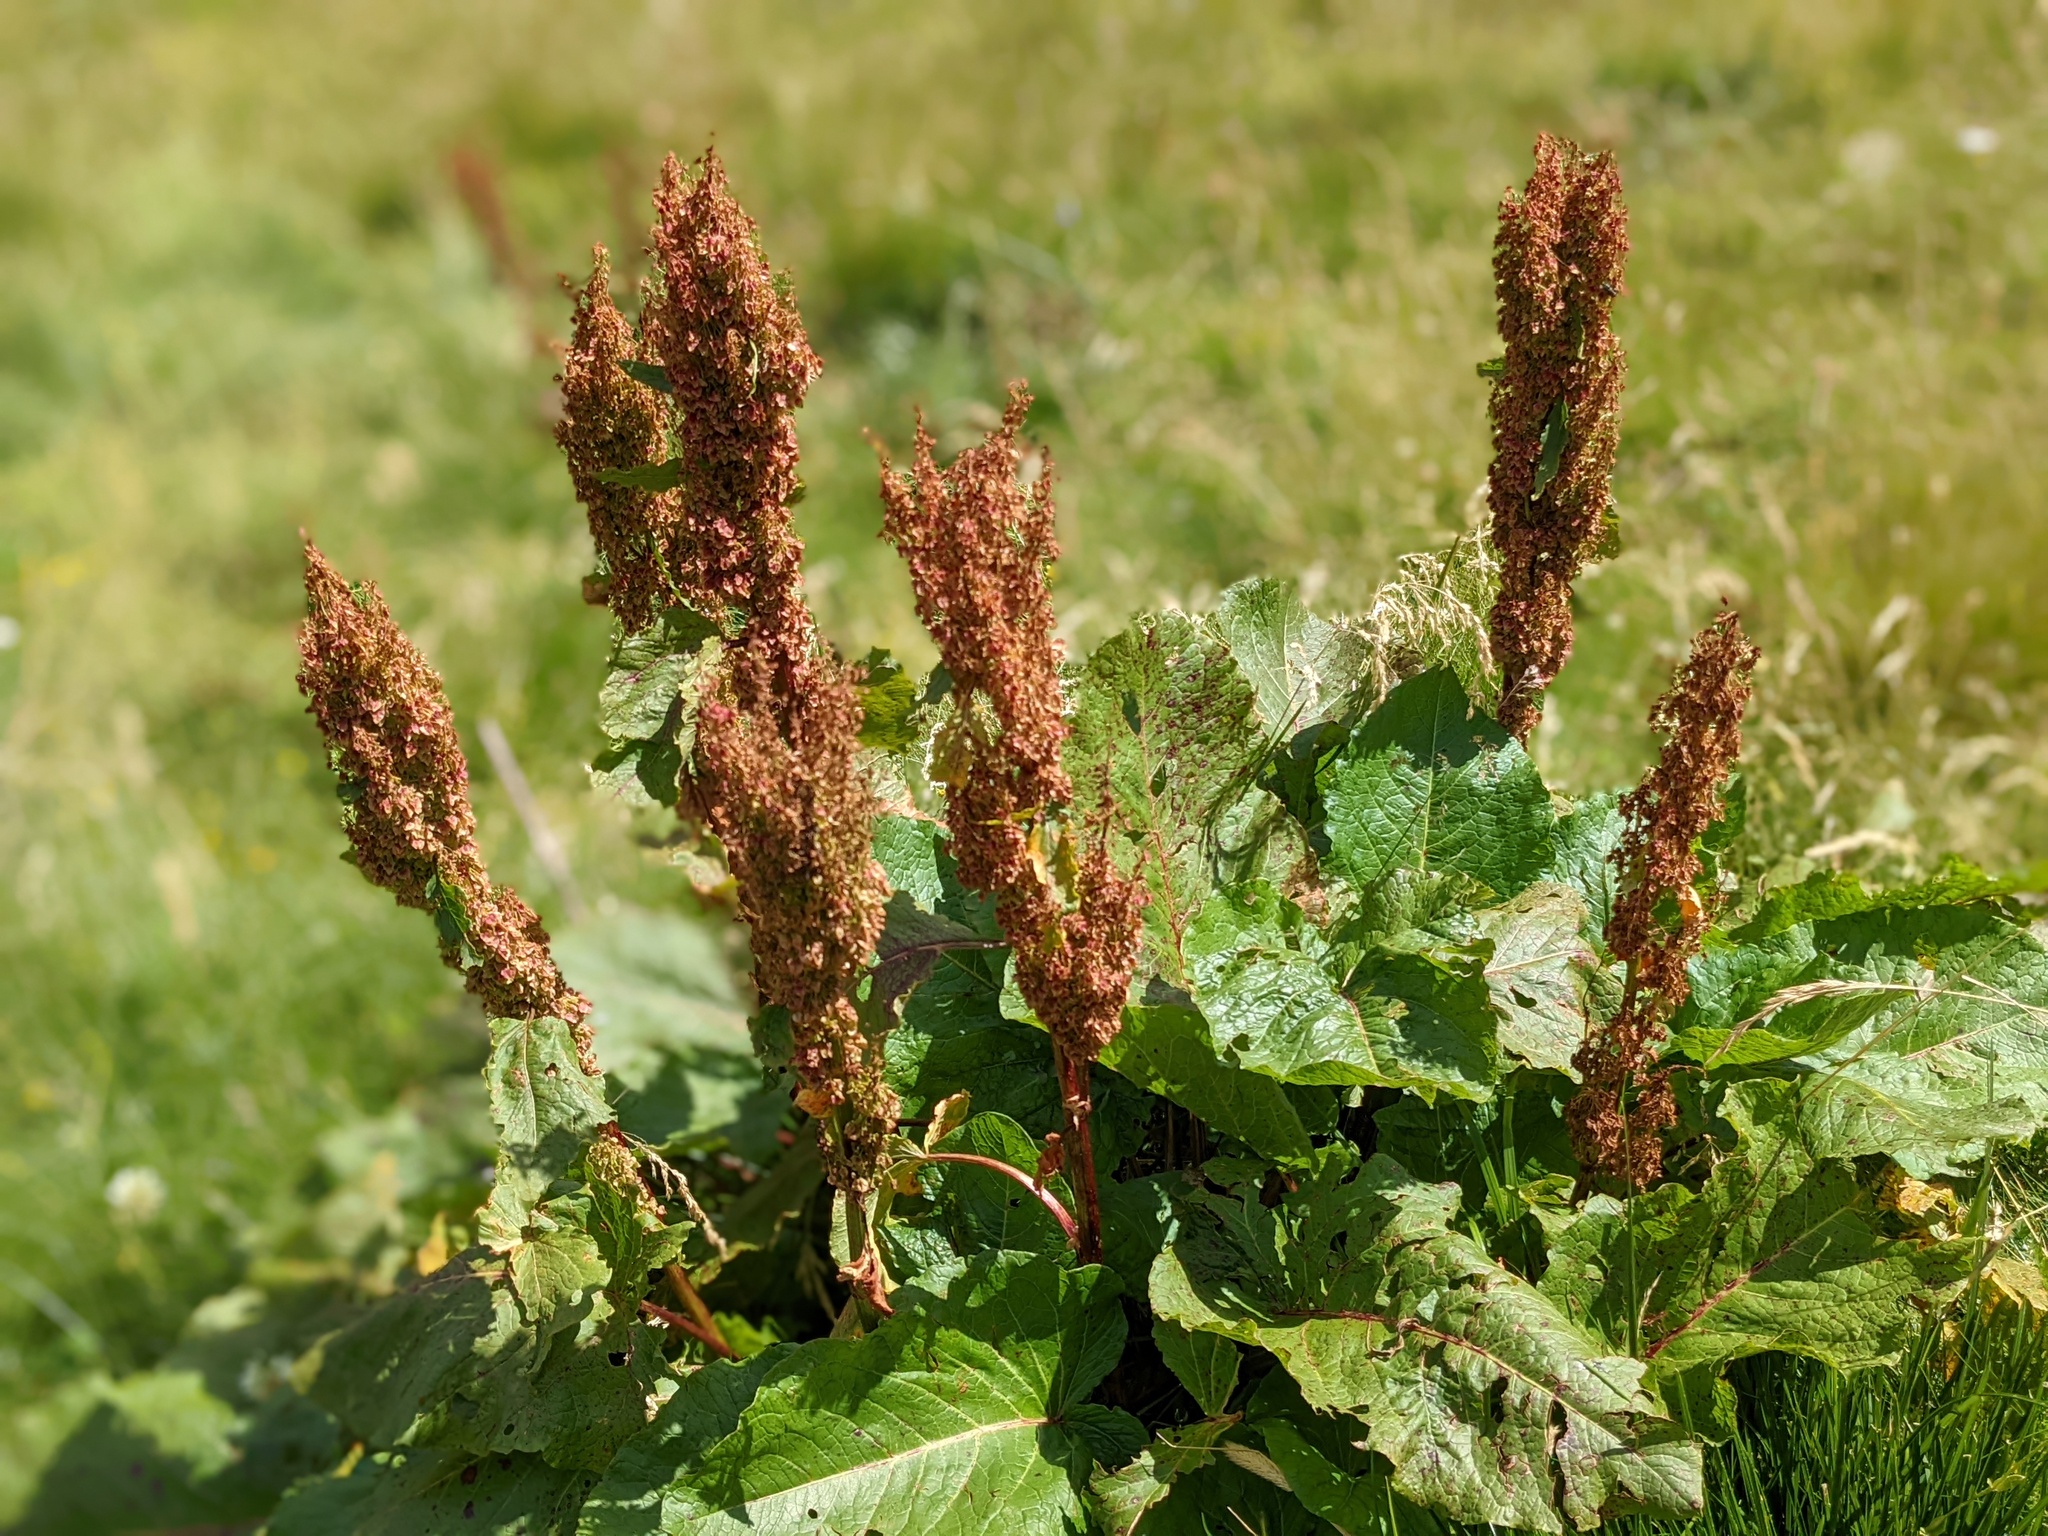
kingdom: Plantae
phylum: Tracheophyta
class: Magnoliopsida
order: Caryophyllales
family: Polygonaceae
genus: Rumex
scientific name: Rumex alpinus
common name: Alpine dock
